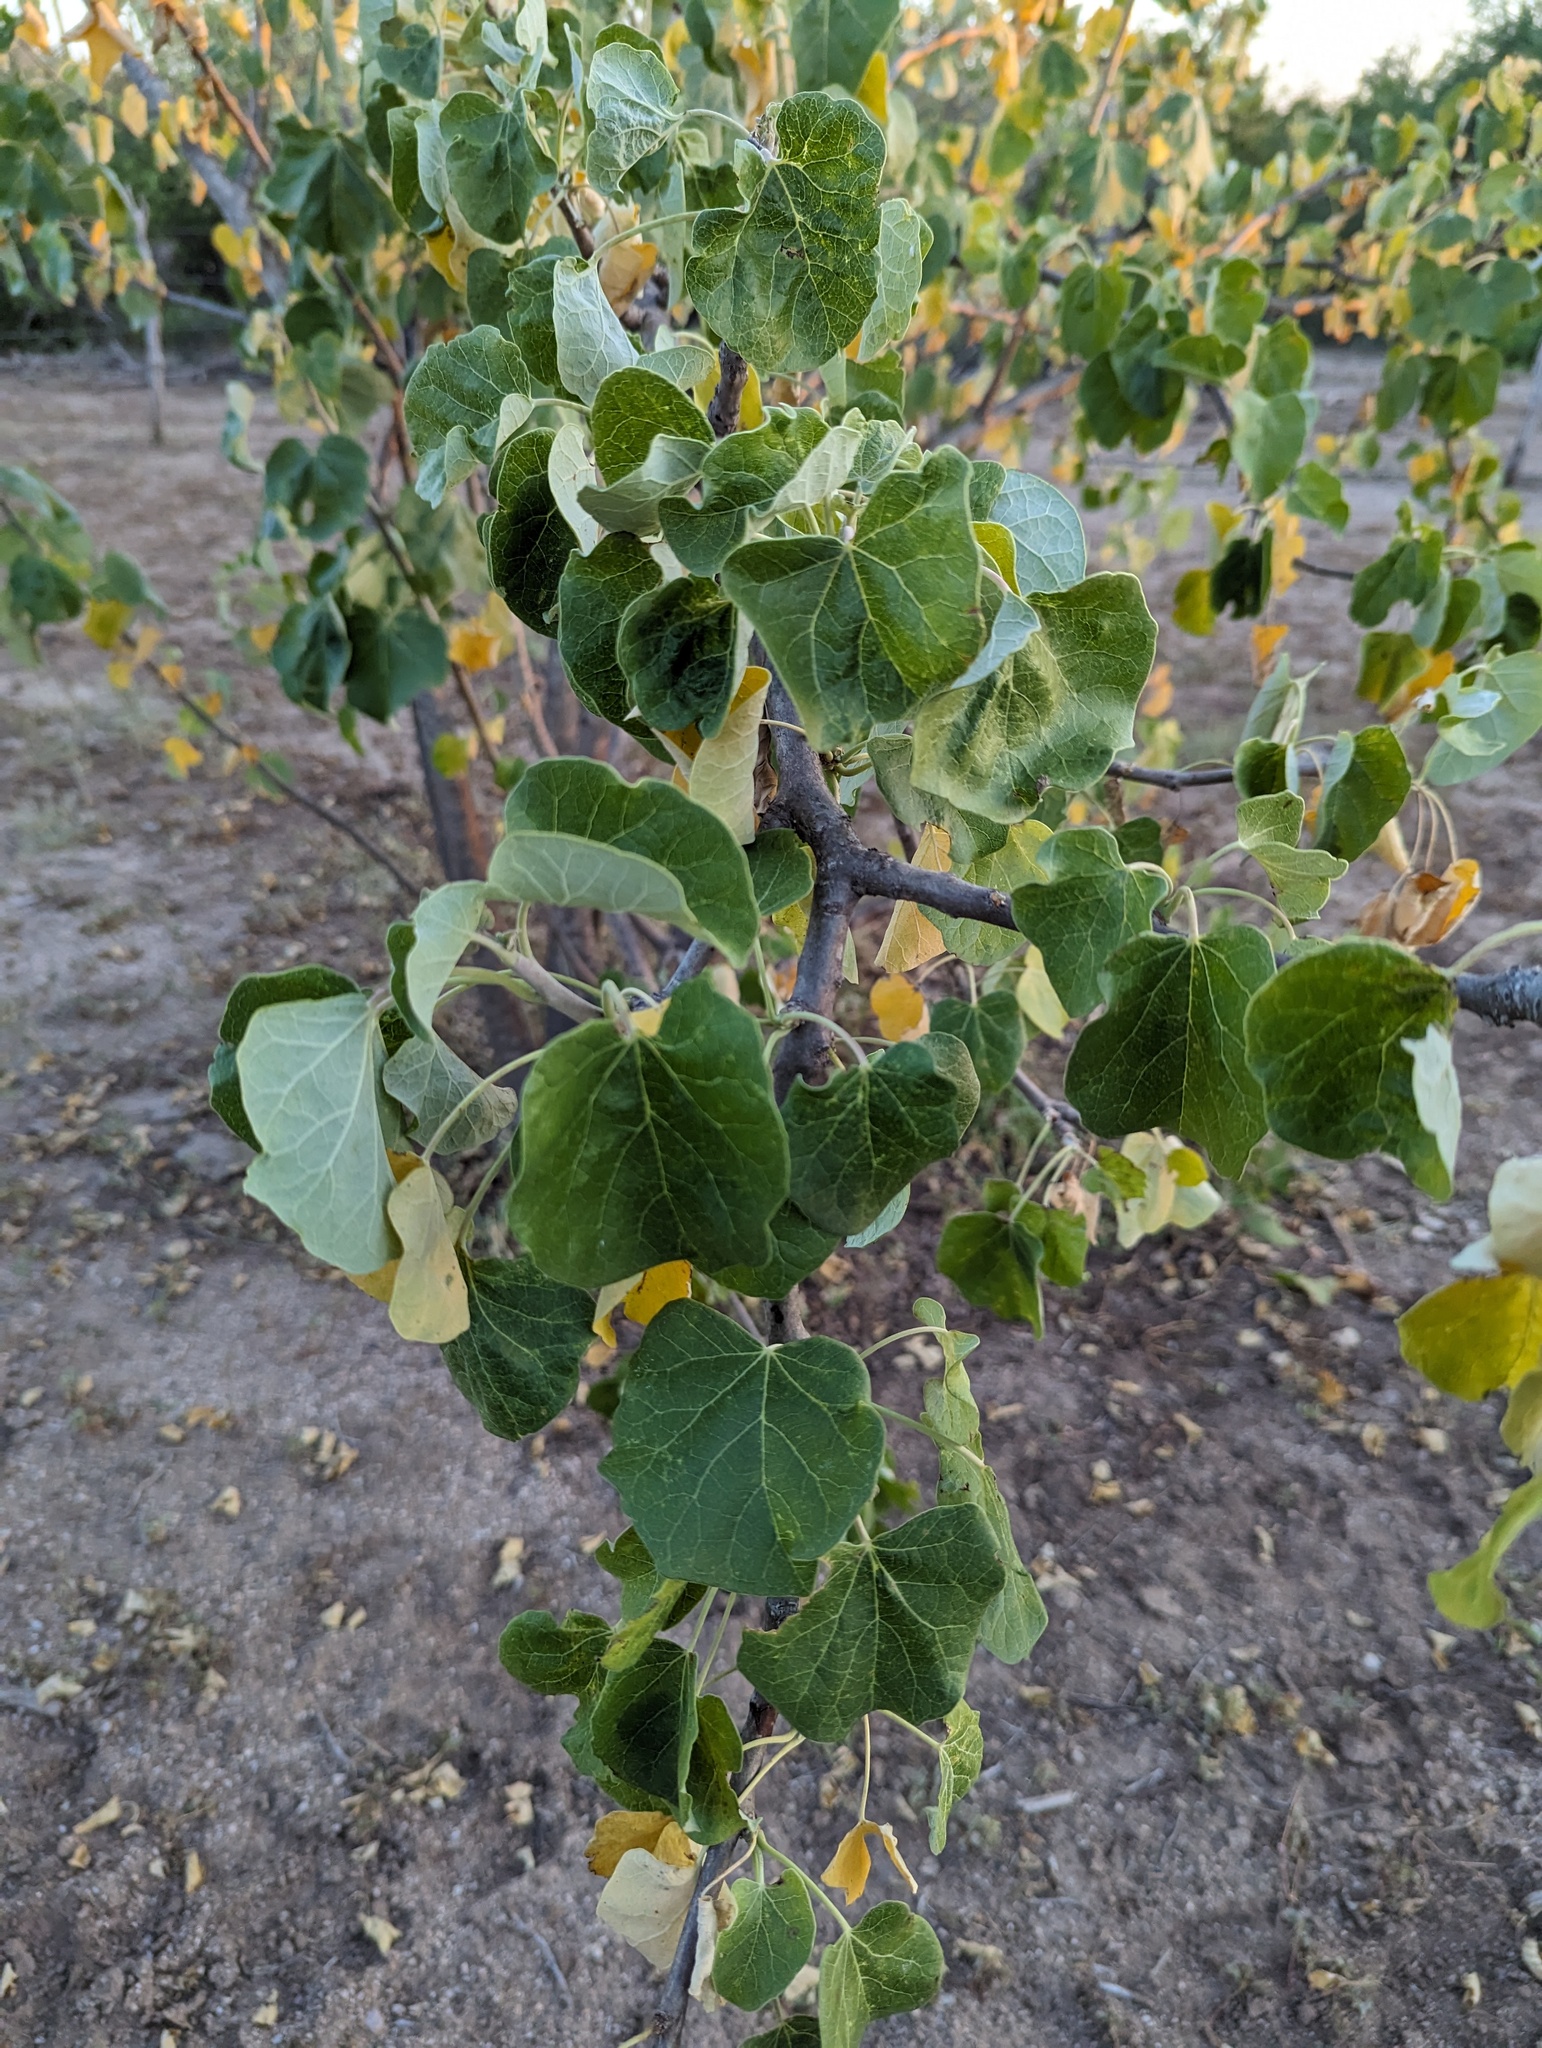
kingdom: Plantae
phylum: Tracheophyta
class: Magnoliopsida
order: Malpighiales
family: Euphorbiaceae
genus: Jatropha
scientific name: Jatropha cinerea
